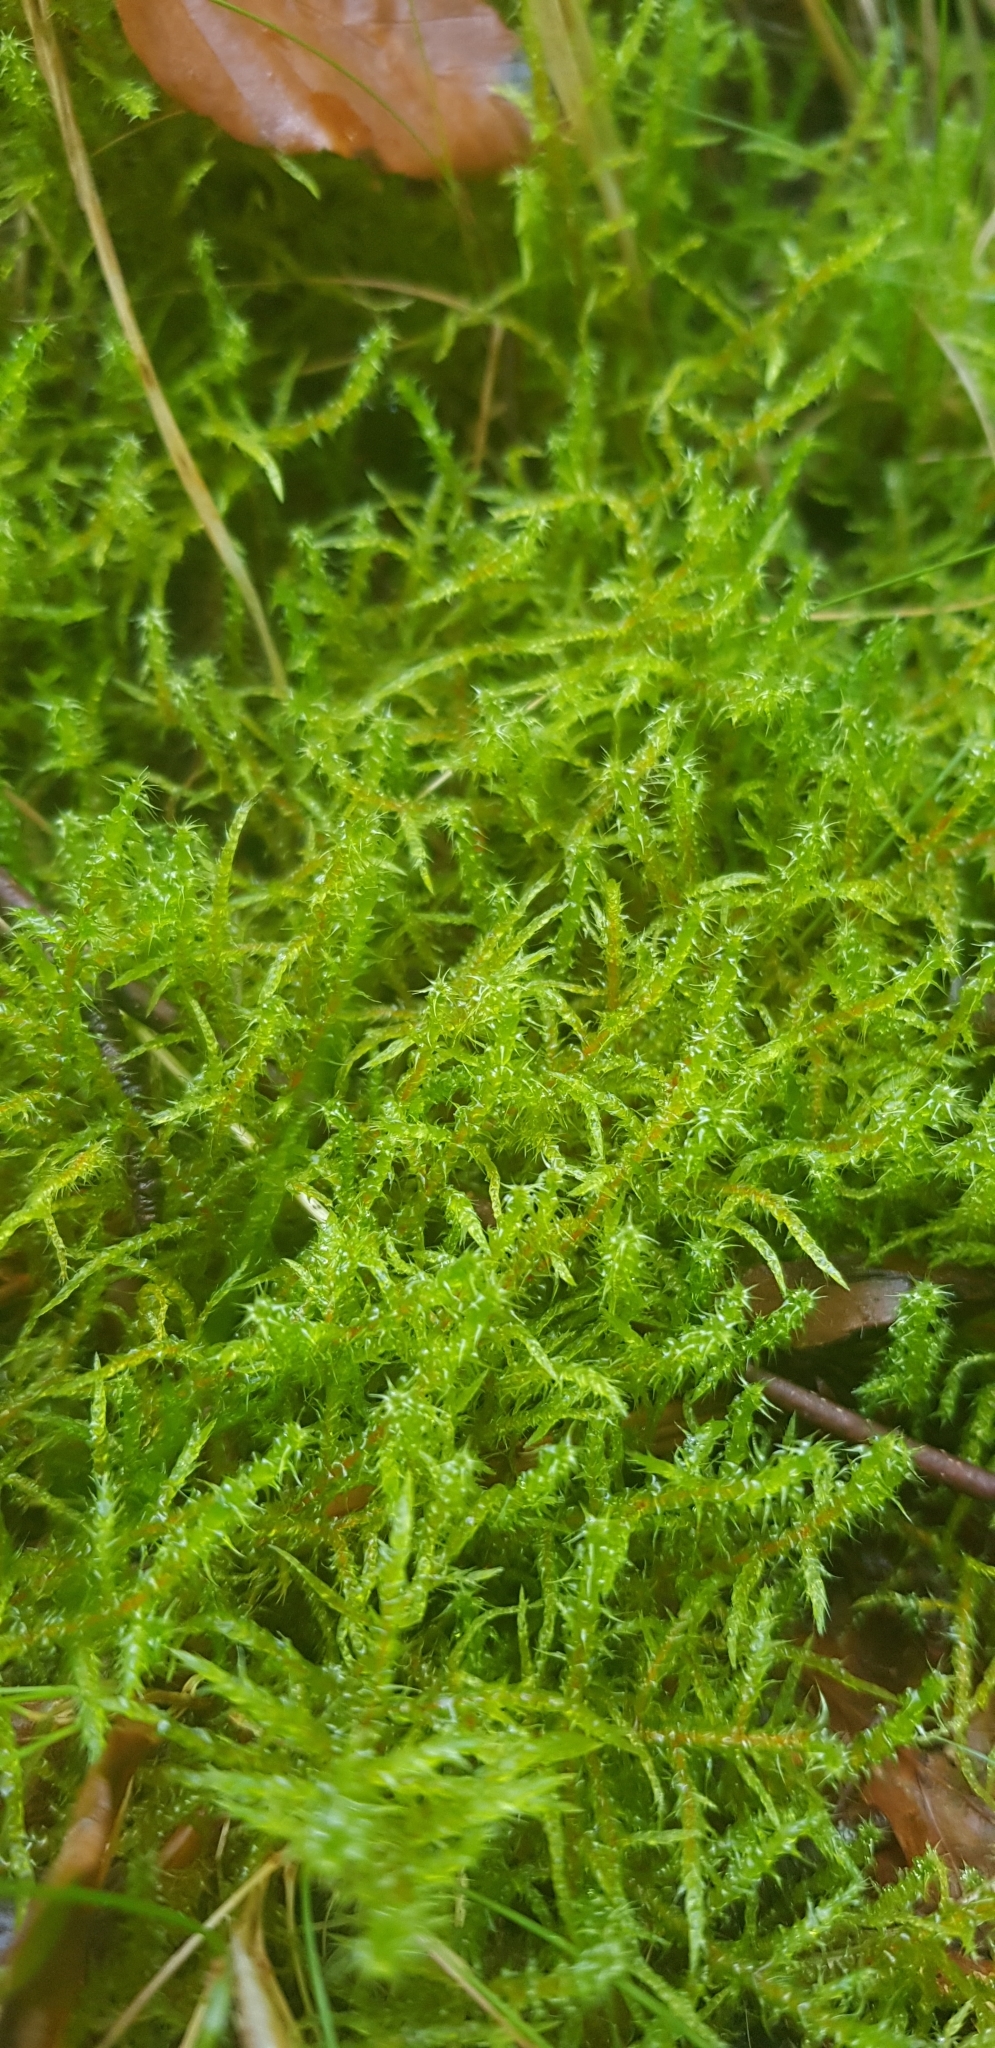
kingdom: Plantae
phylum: Bryophyta
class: Bryopsida
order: Hypnales
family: Hylocomiaceae
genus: Rhytidiadelphus
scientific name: Rhytidiadelphus squarrosus
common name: Springy turf-moss
